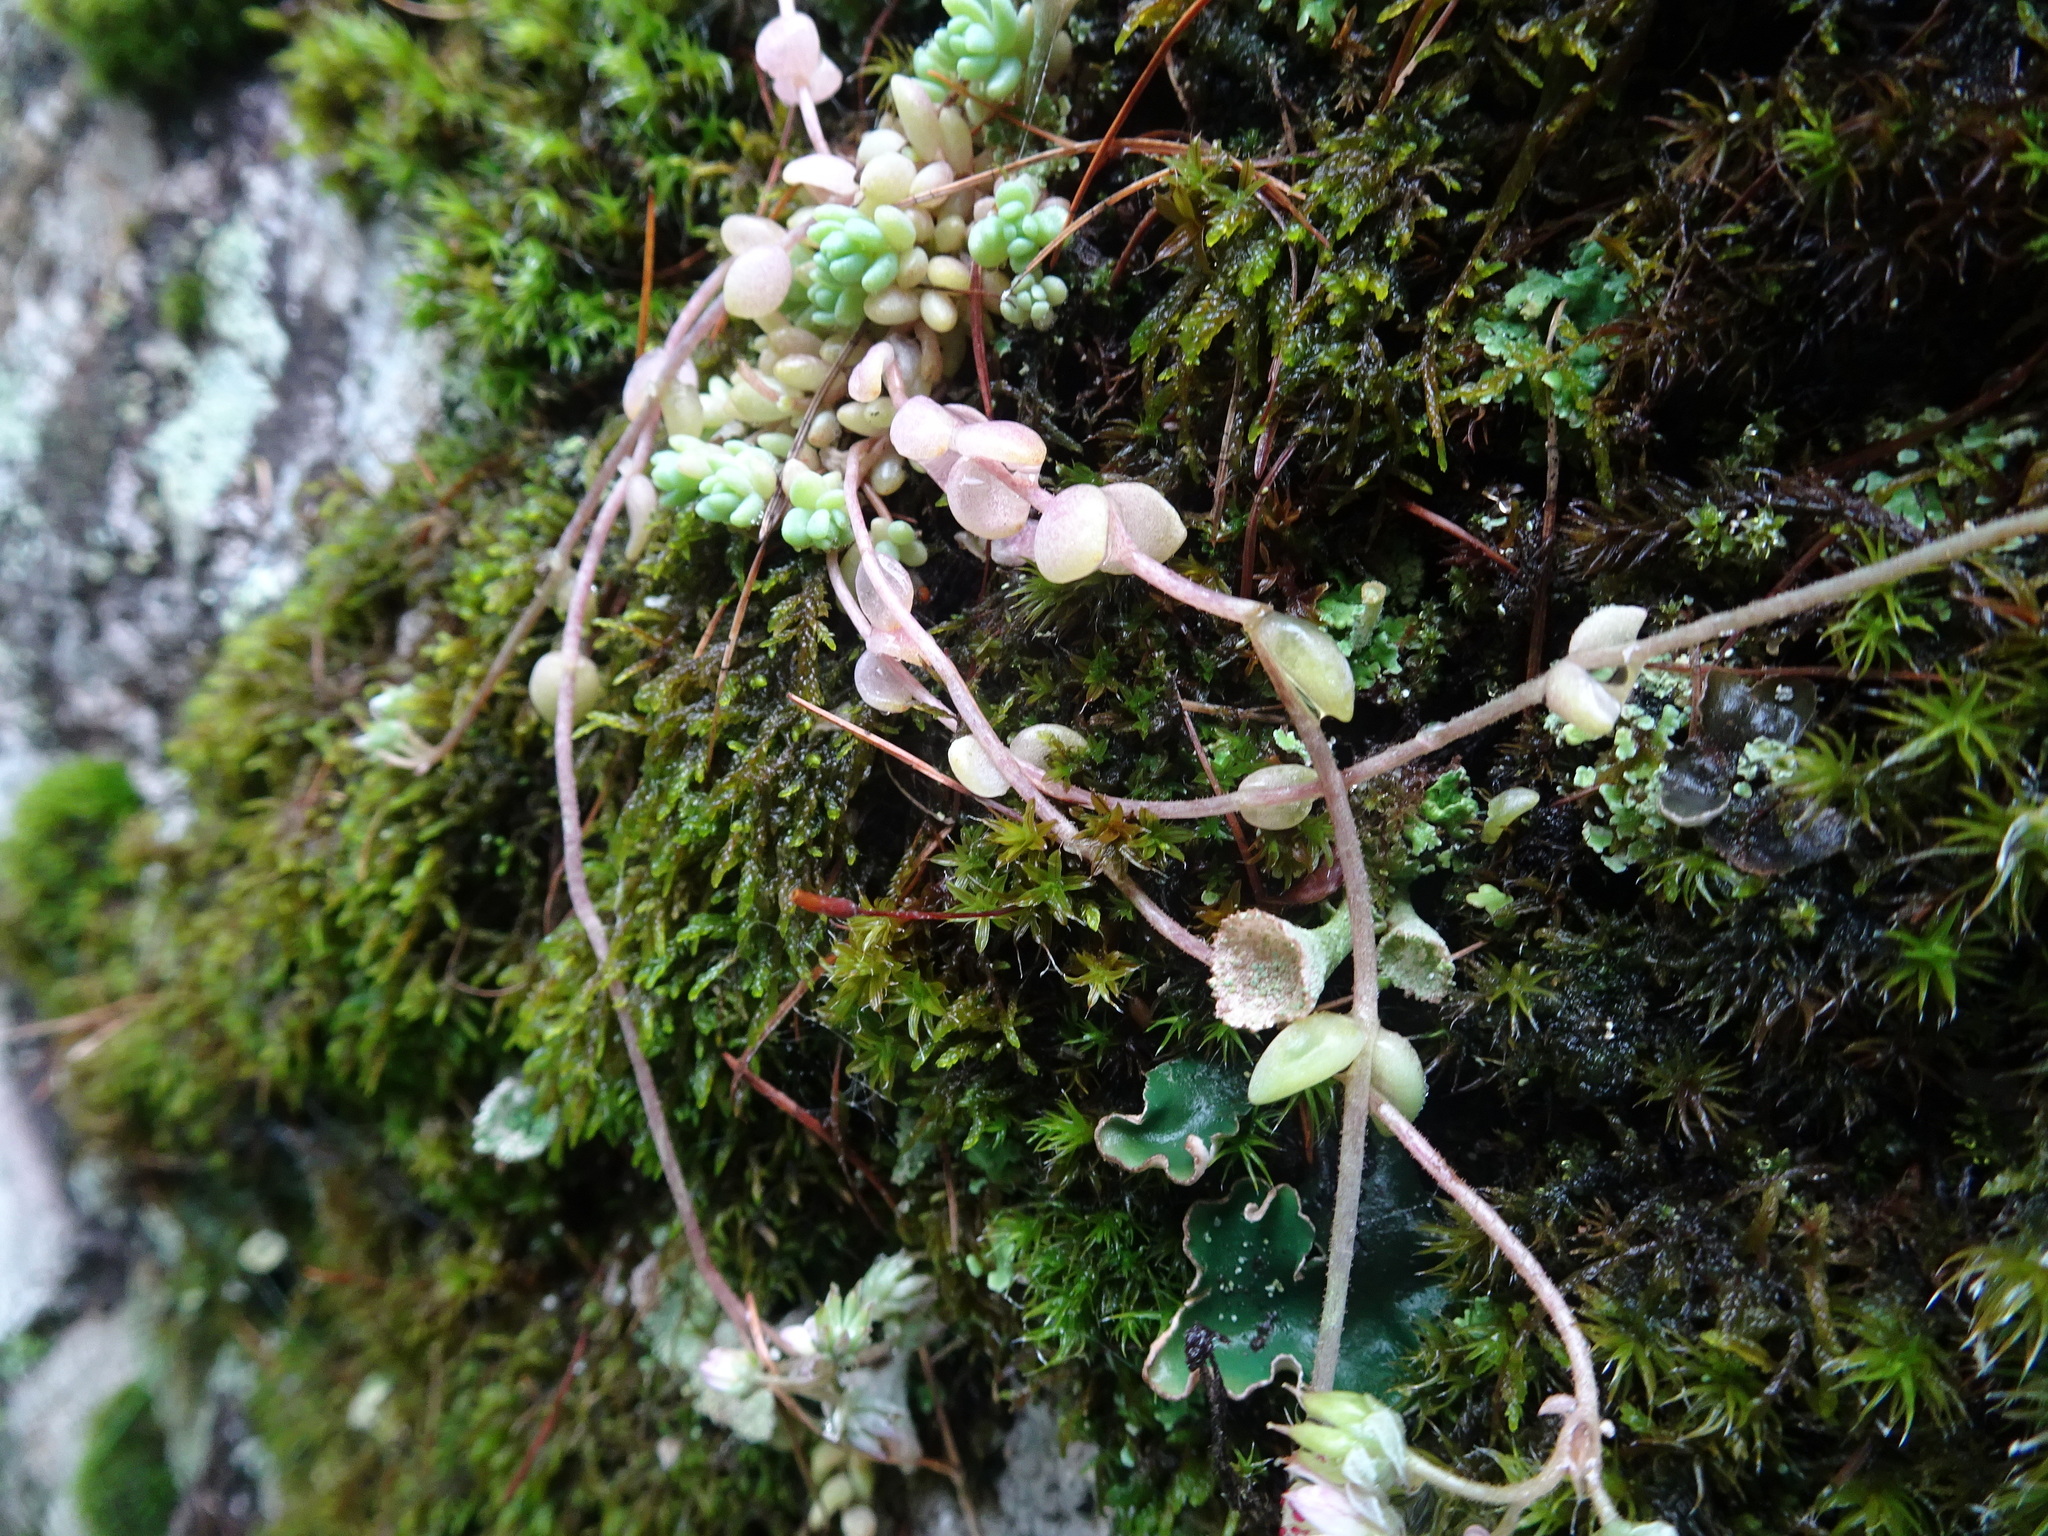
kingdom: Plantae
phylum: Tracheophyta
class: Magnoliopsida
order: Saxifragales
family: Crassulaceae
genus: Sedum
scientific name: Sedum dasyphyllum
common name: Thick-leaf stonecrop
